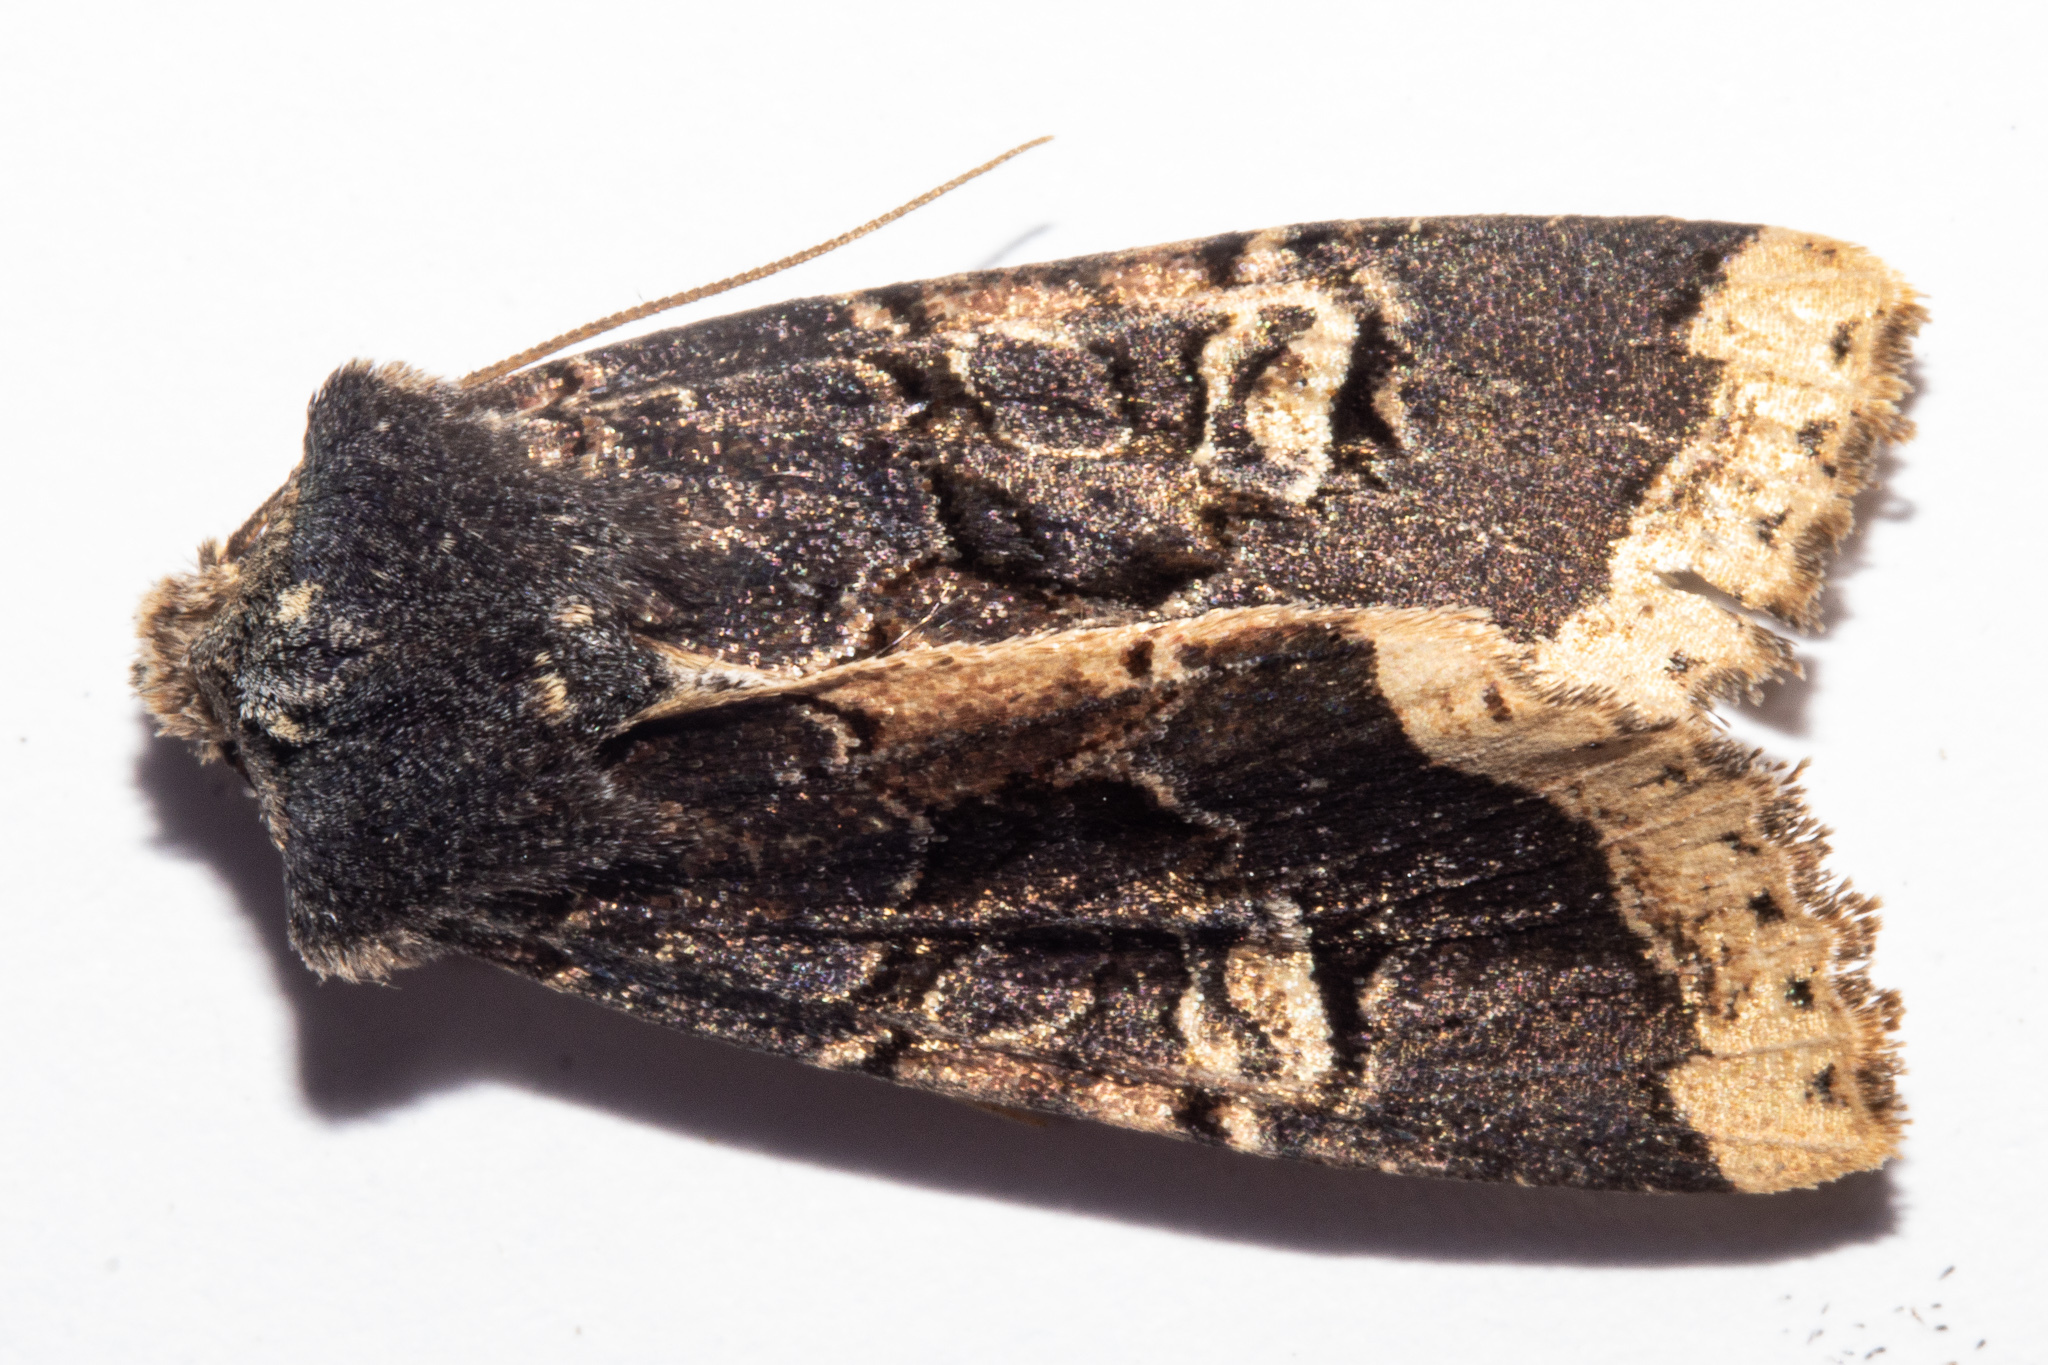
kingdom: Animalia
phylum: Arthropoda
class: Insecta
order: Lepidoptera
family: Noctuidae
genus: Meterana
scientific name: Meterana tartaraea
